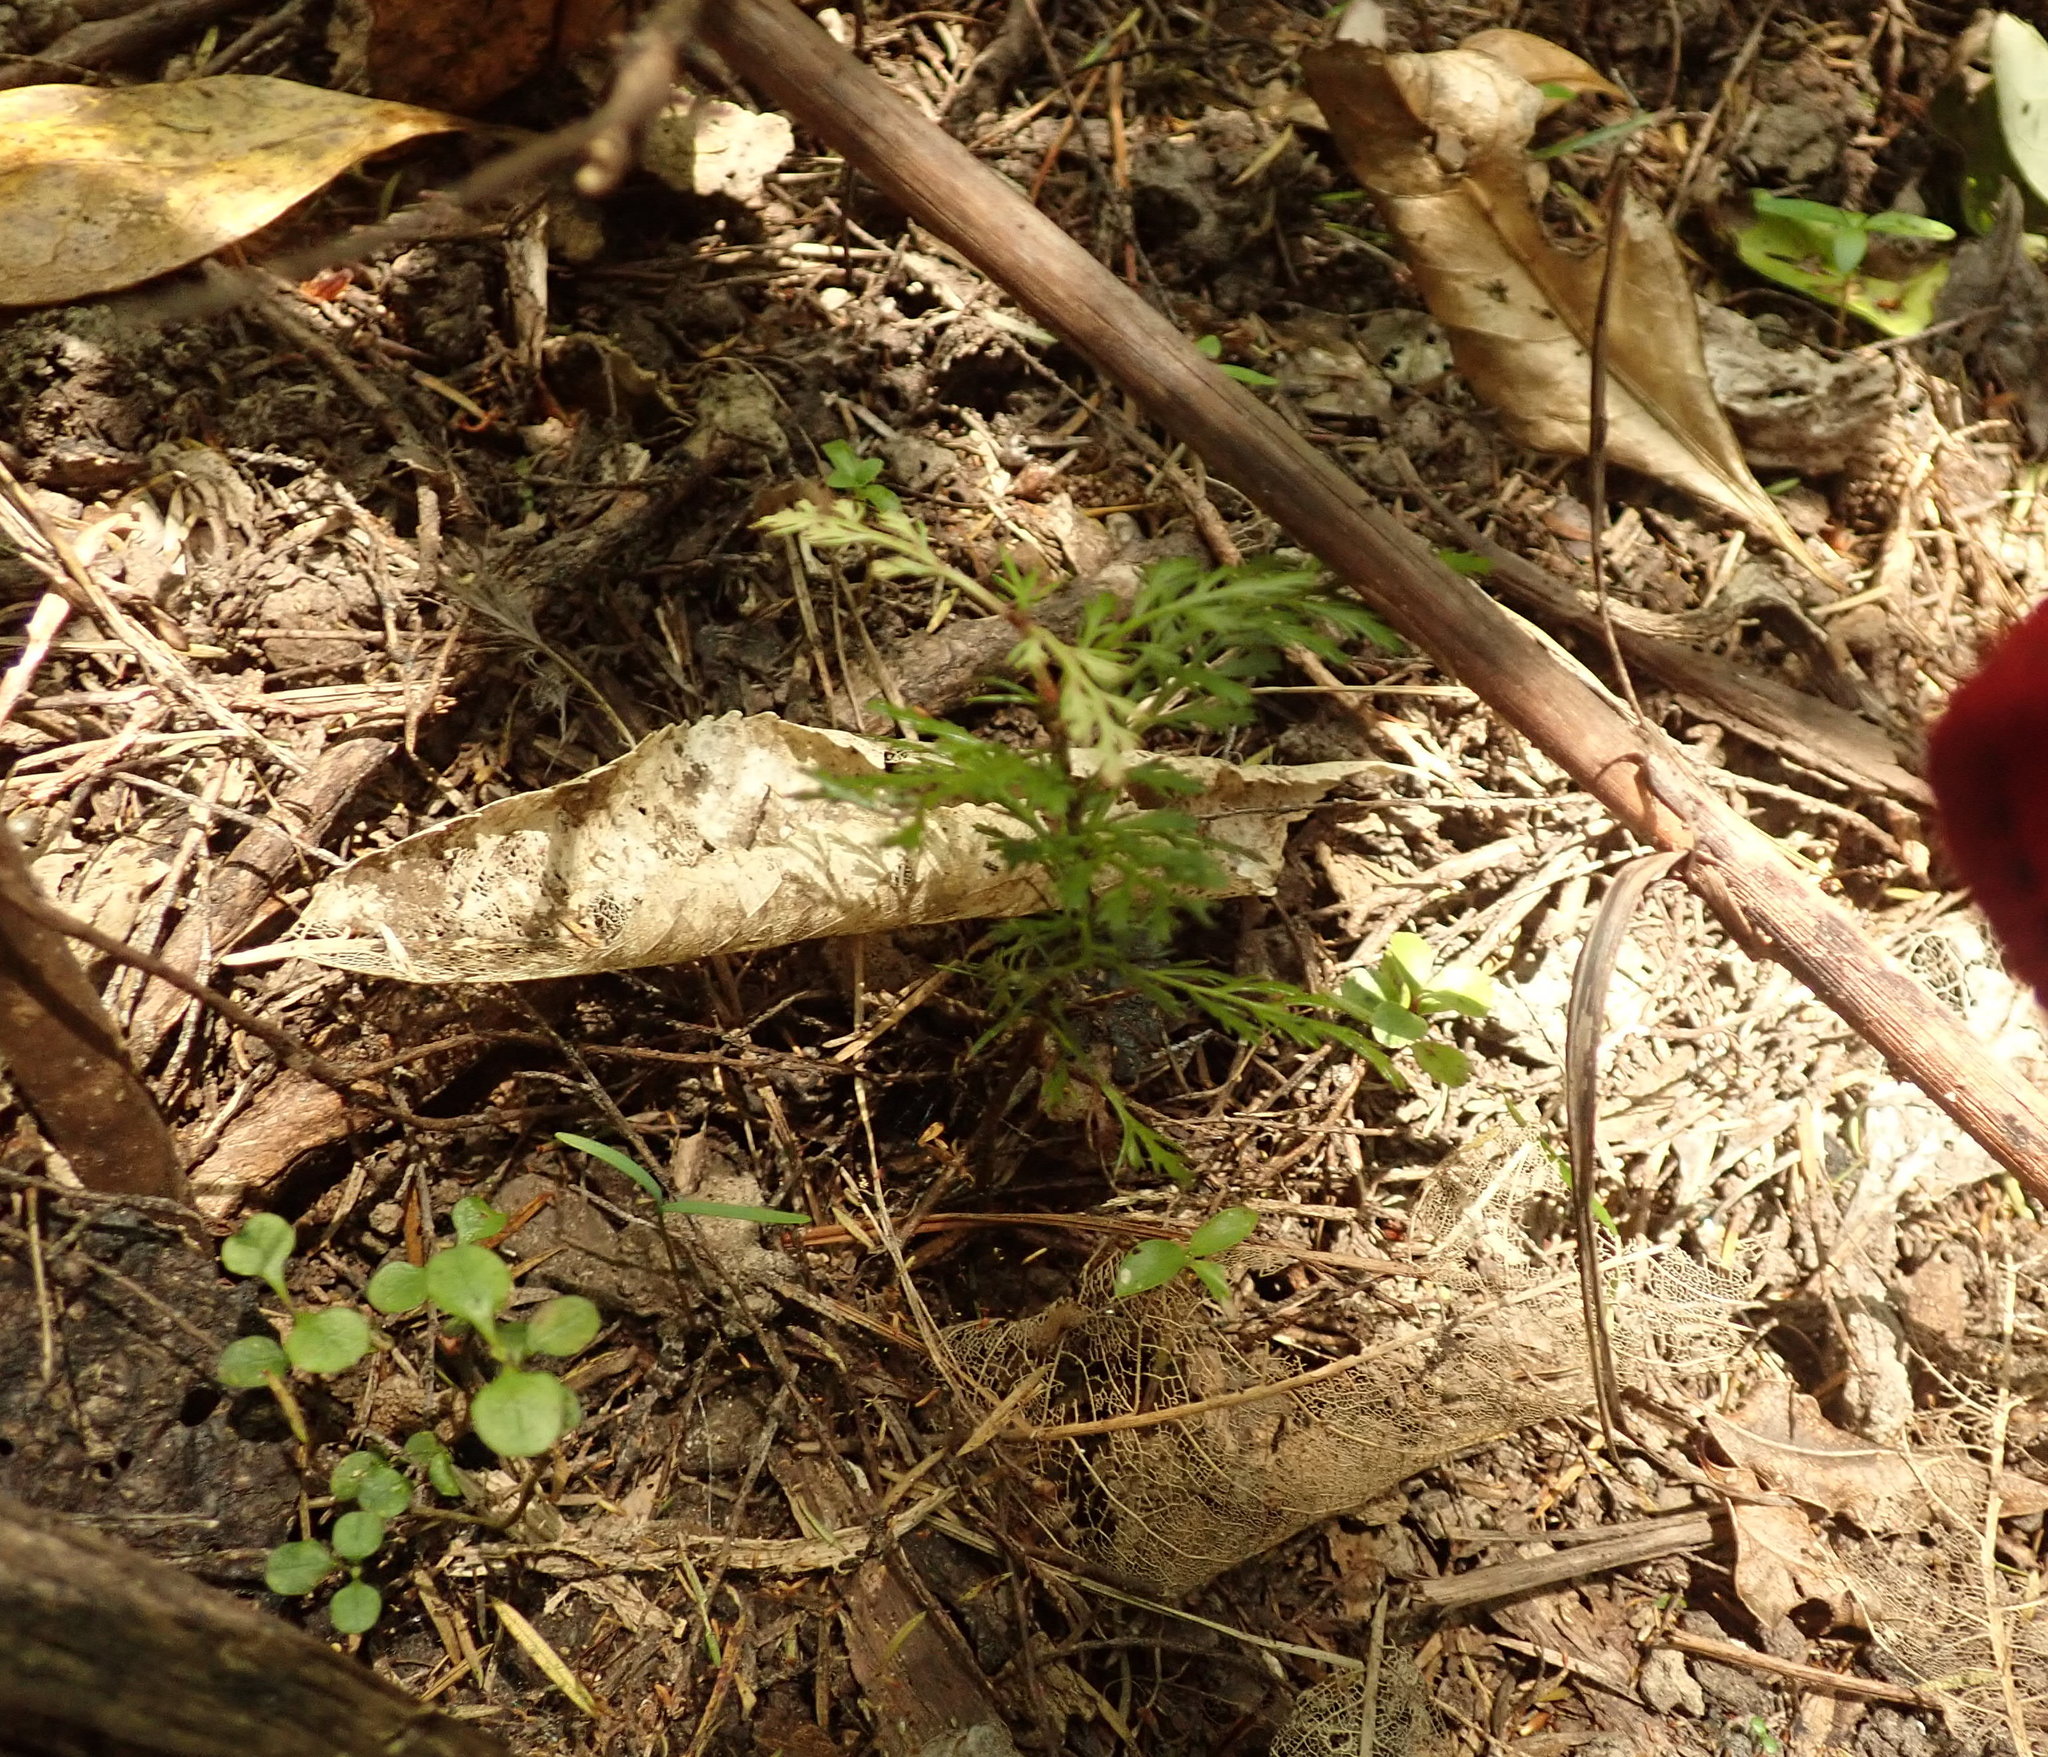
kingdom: Plantae
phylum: Tracheophyta
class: Pinopsida
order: Pinales
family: Phyllocladaceae
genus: Phyllocladus
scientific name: Phyllocladus trichomanoides
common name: Celery pine
